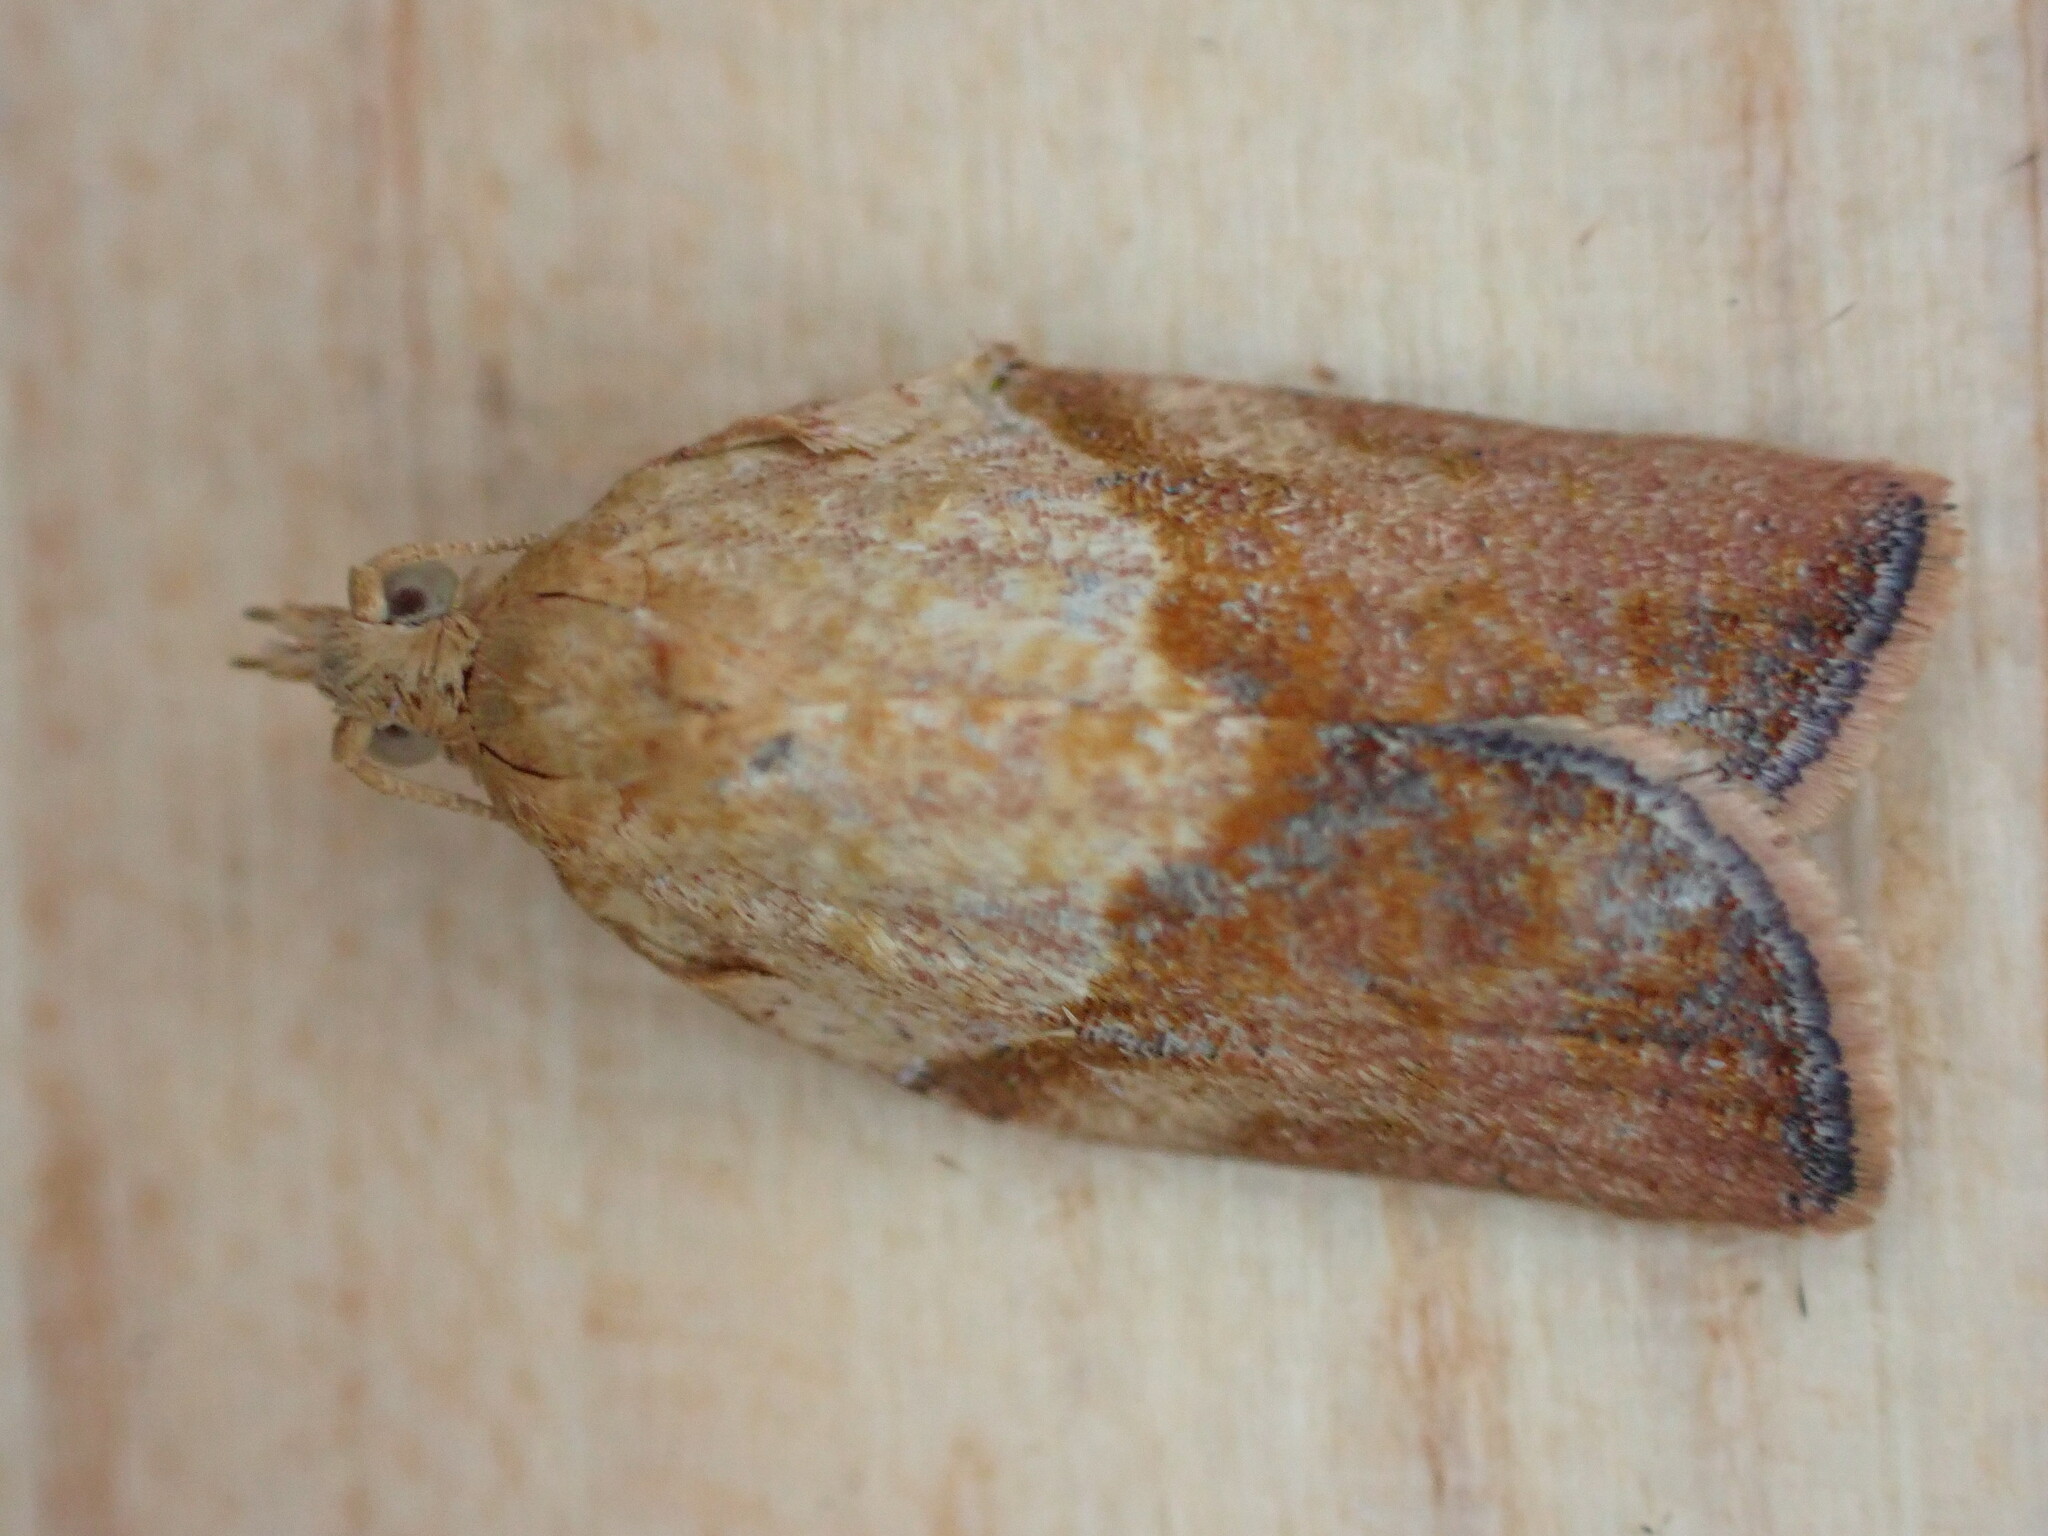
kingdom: Animalia
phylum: Arthropoda
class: Insecta
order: Lepidoptera
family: Tortricidae
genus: Epiphyas
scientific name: Epiphyas postvittana
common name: Light brown apple moth
